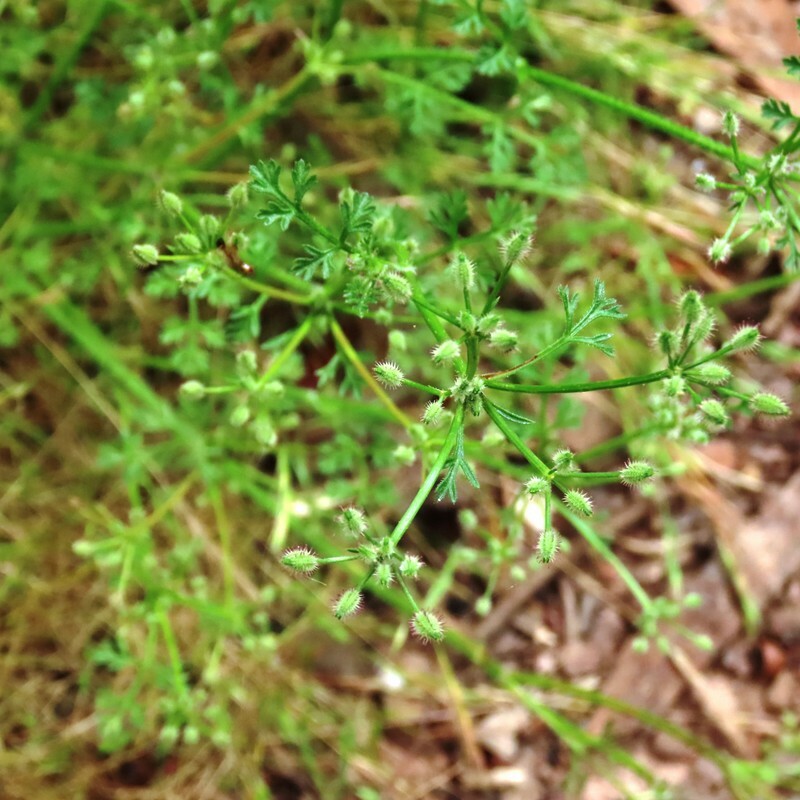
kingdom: Plantae
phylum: Tracheophyta
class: Magnoliopsida
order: Apiales
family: Apiaceae
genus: Daucus
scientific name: Daucus glochidiatus
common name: Australian carrot
